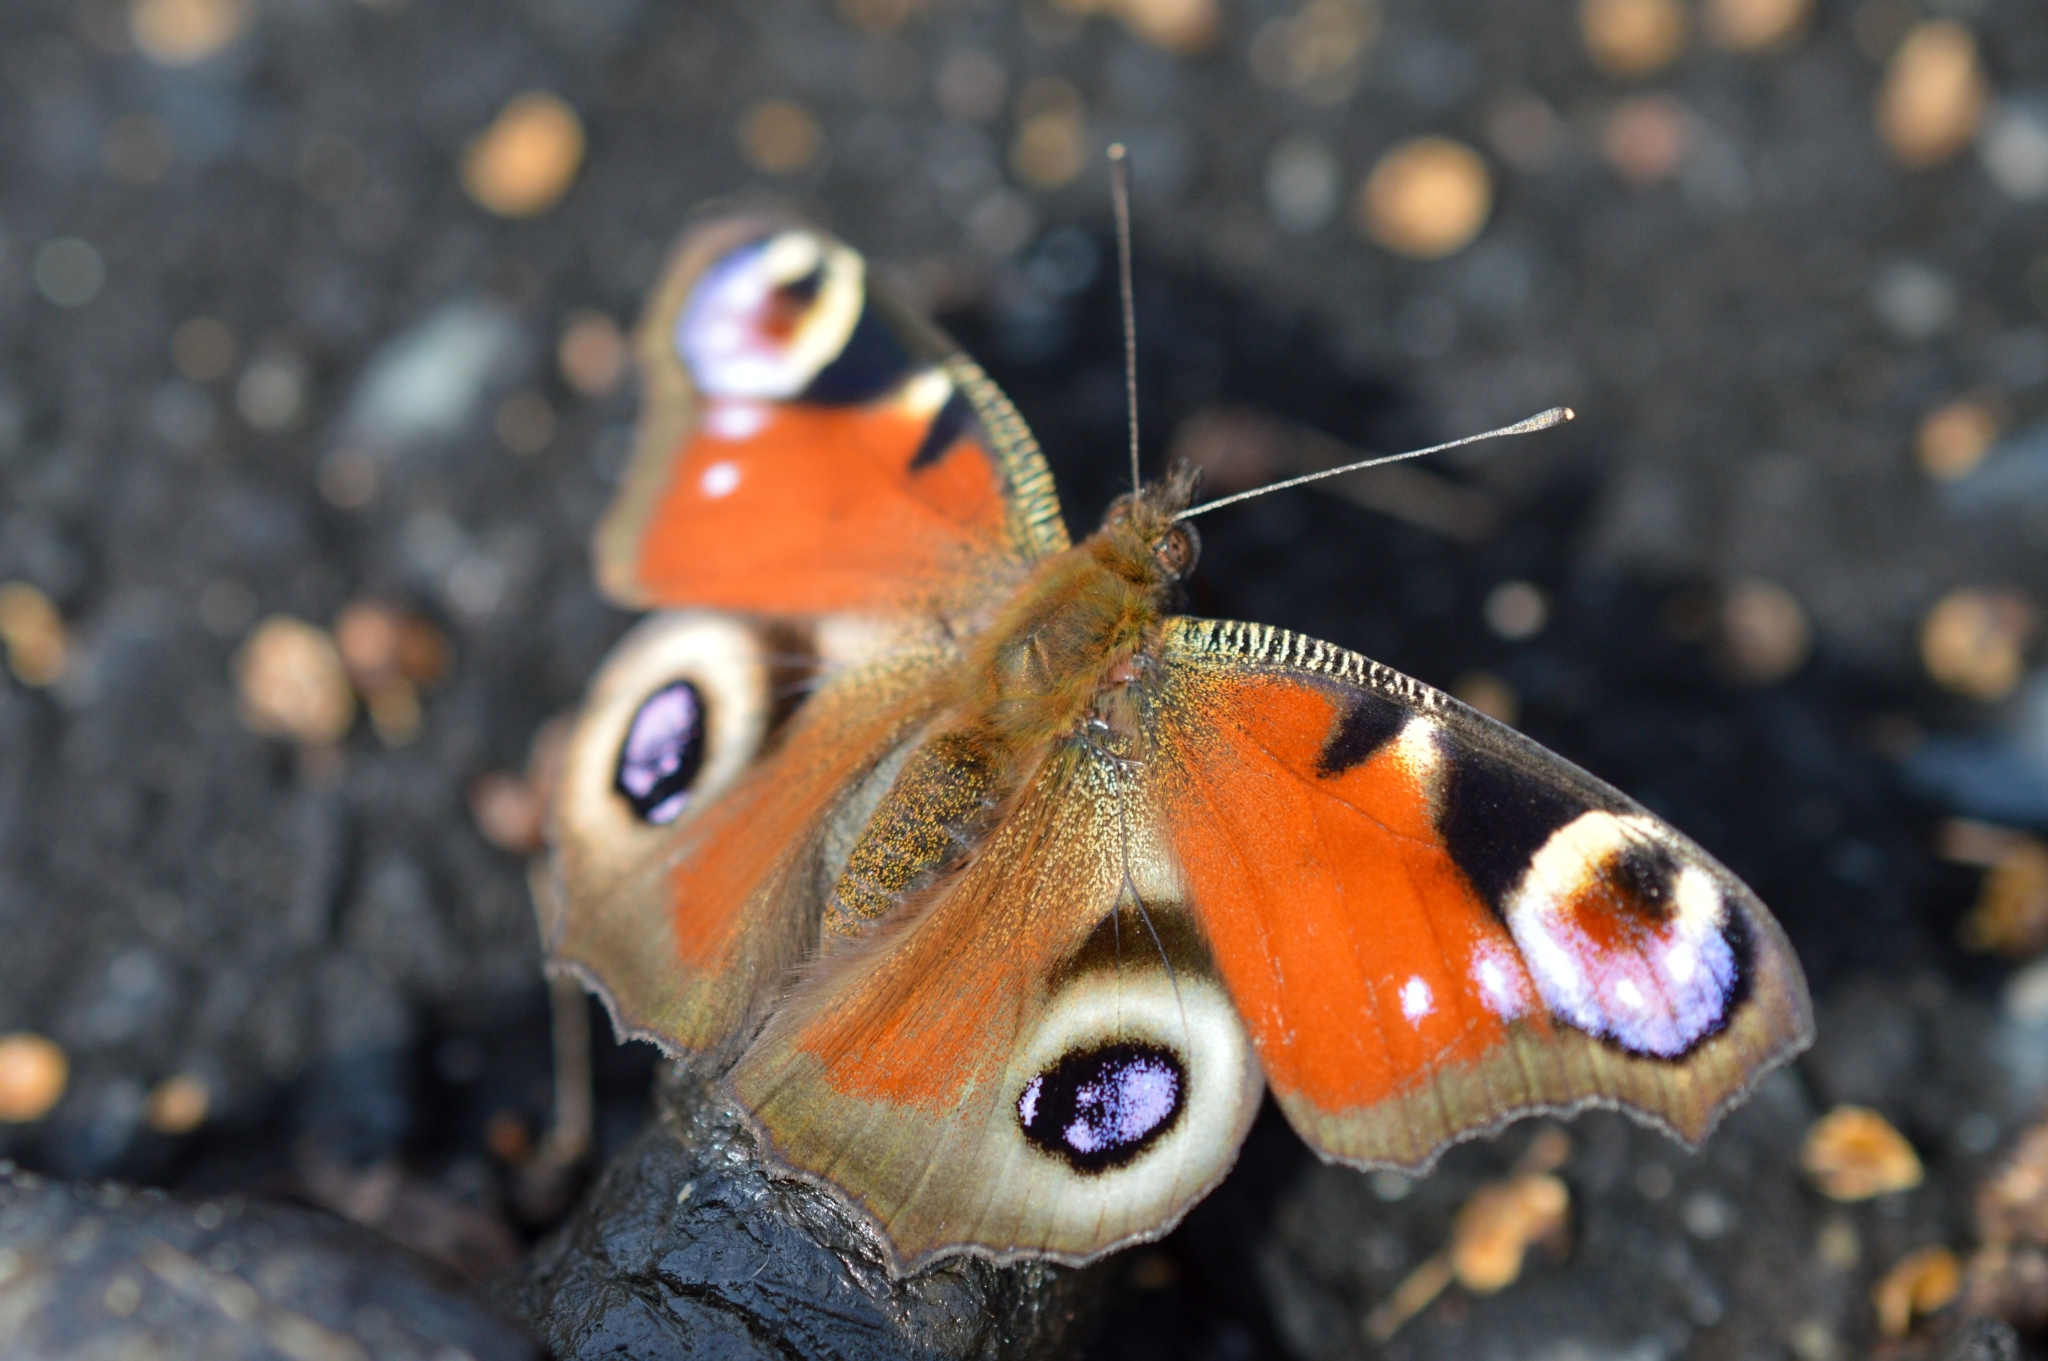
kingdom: Animalia
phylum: Arthropoda
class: Insecta
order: Lepidoptera
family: Nymphalidae
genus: Aglais
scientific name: Aglais io
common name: Peacock
